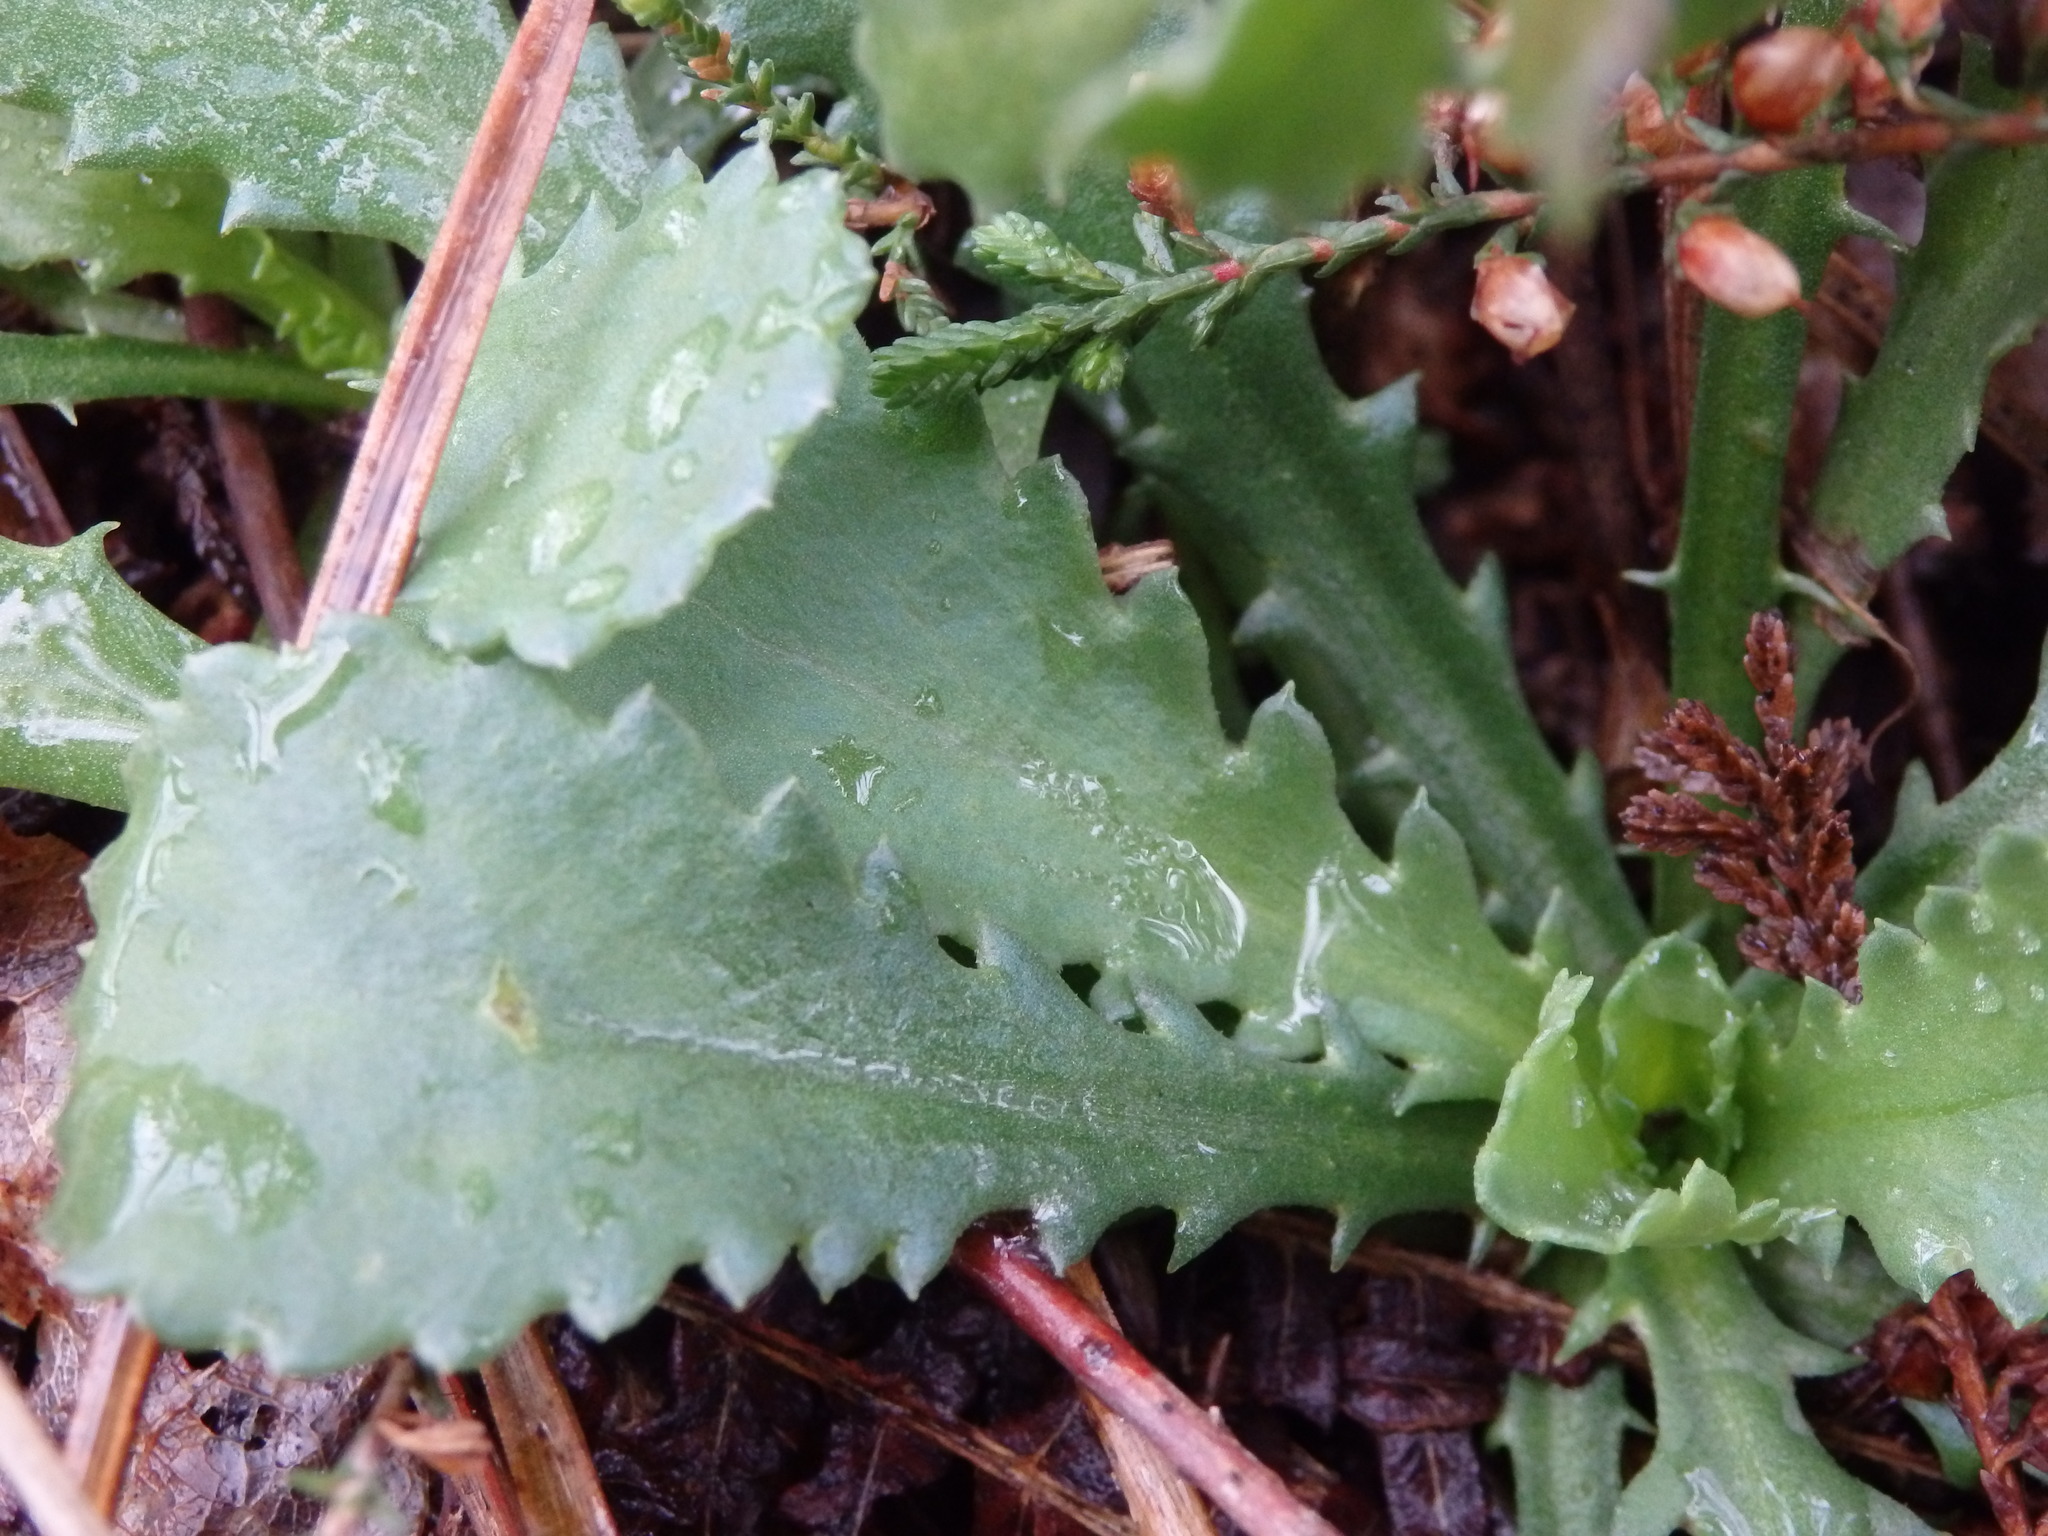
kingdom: Plantae
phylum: Tracheophyta
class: Magnoliopsida
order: Asterales
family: Asteraceae
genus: Lepidophorum
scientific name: Lepidophorum repandum
